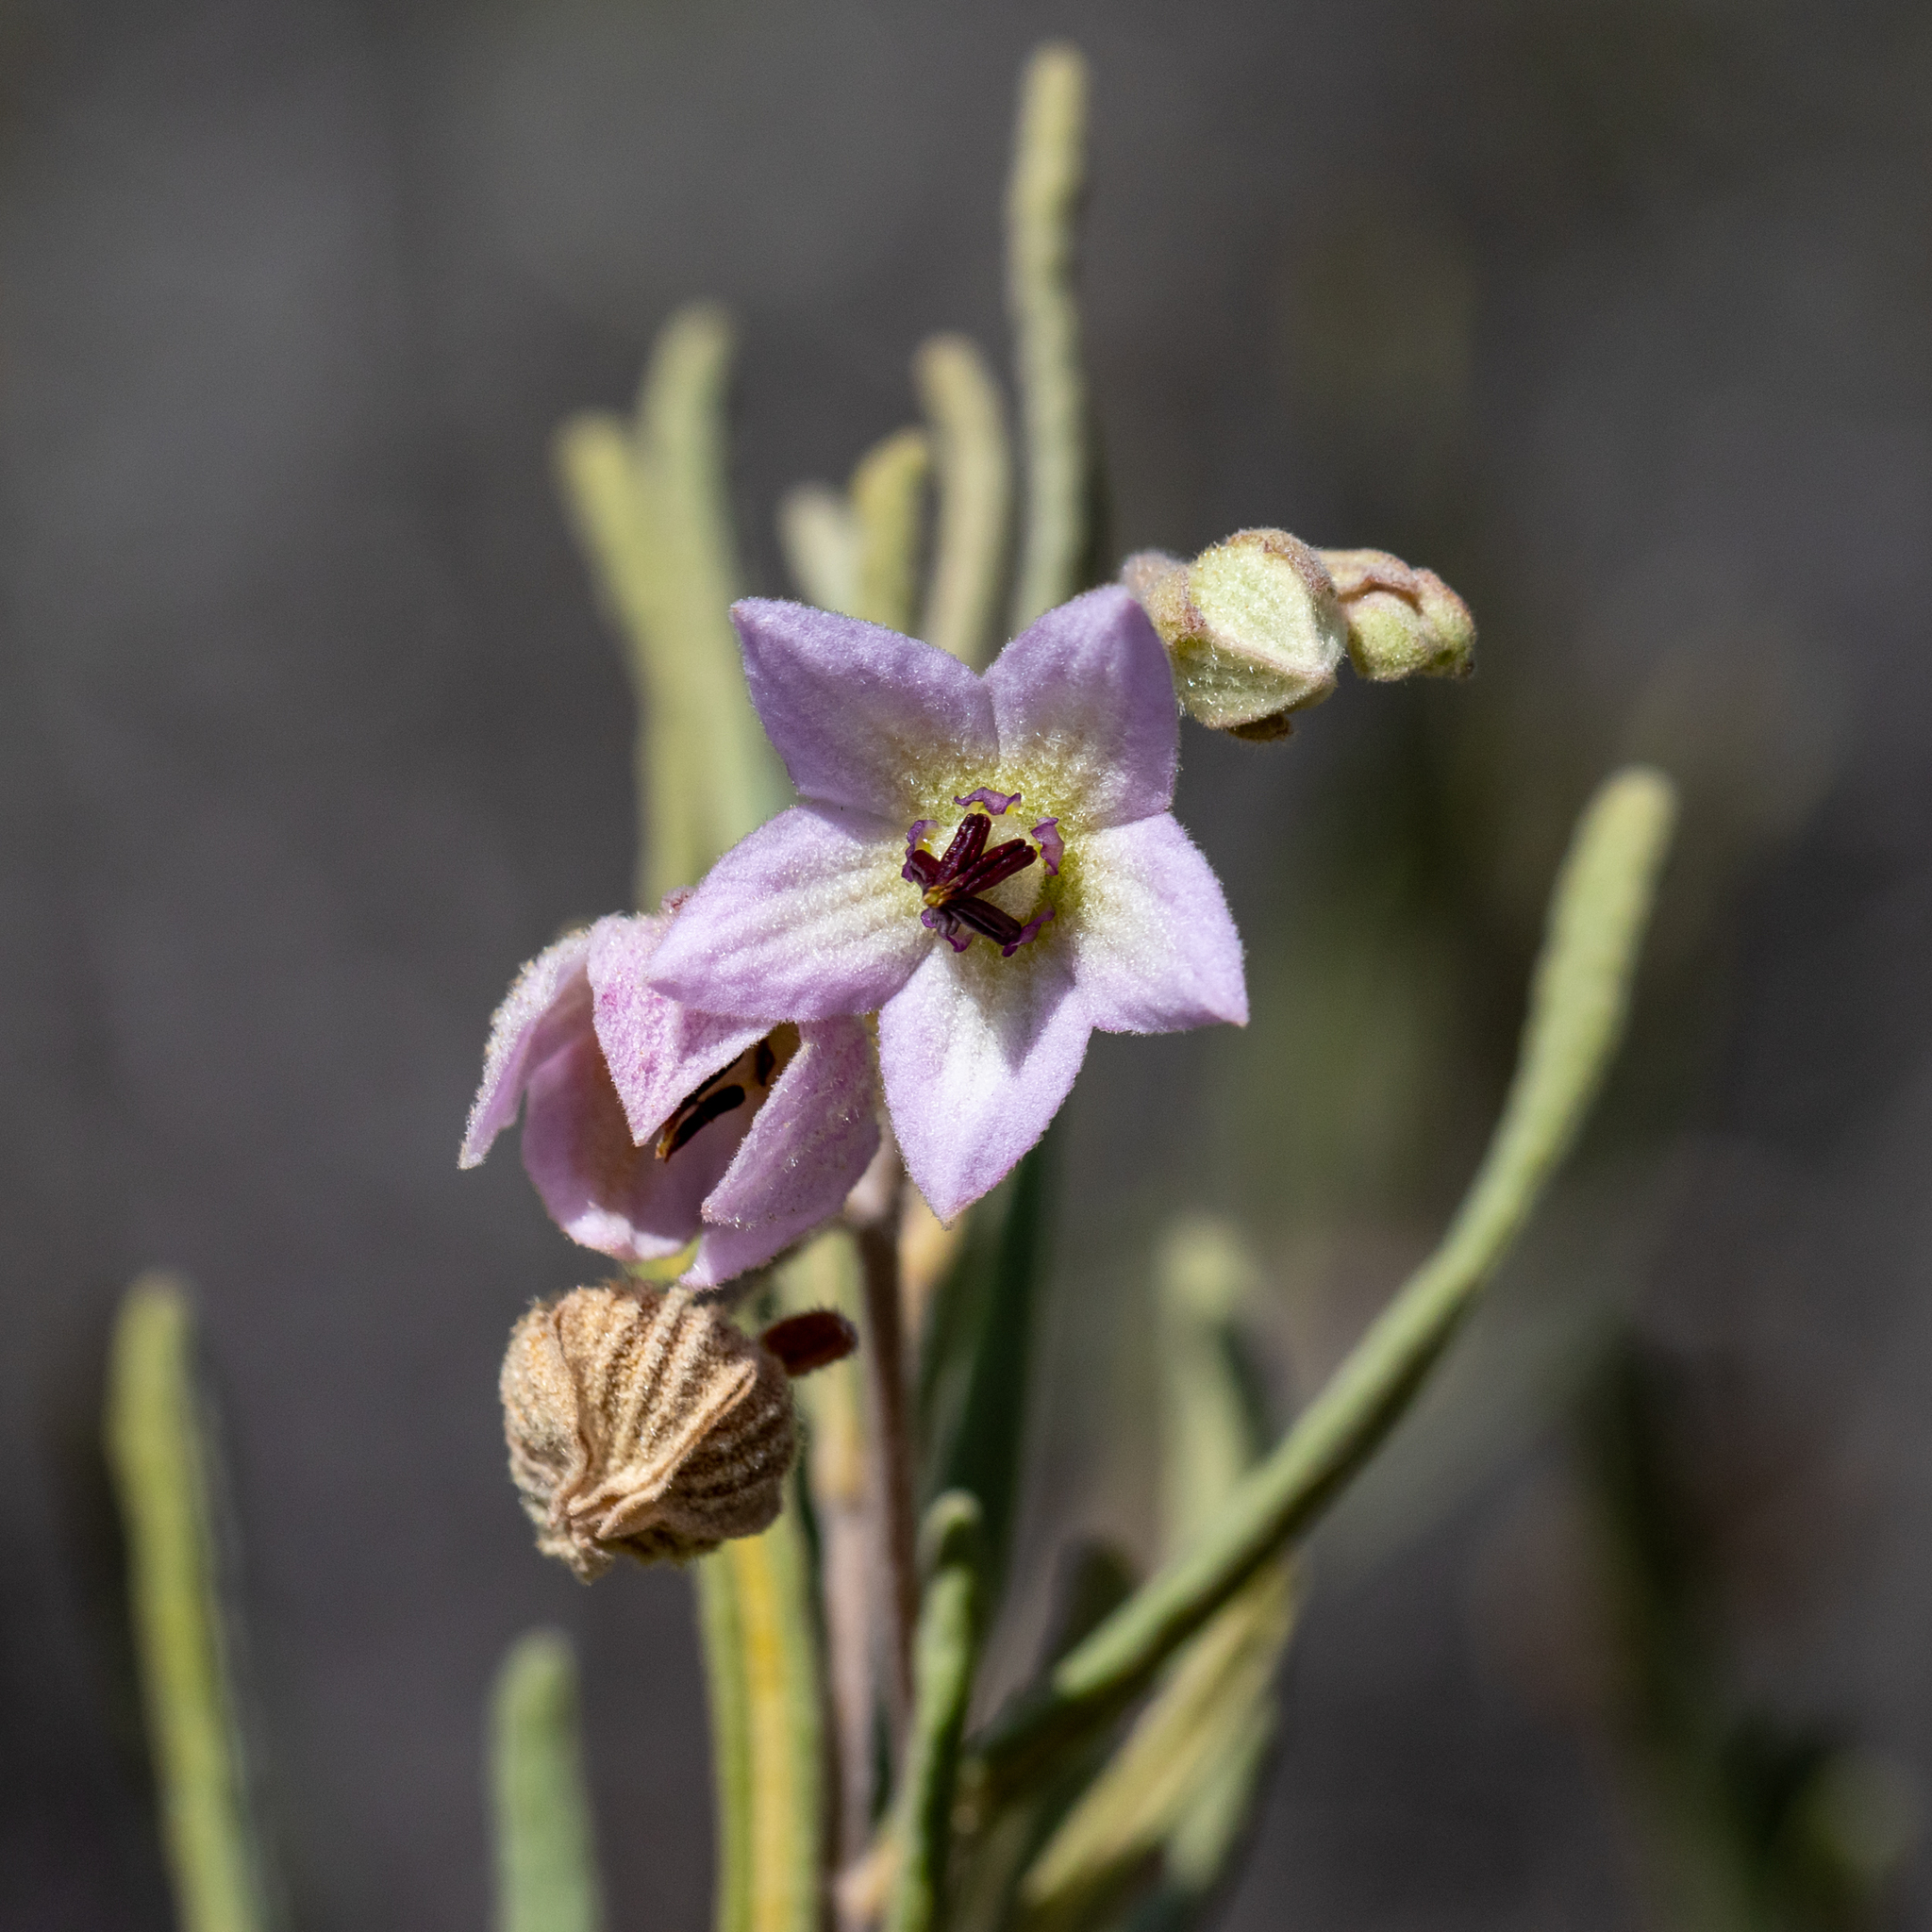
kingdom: Plantae
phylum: Tracheophyta
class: Magnoliopsida
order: Malvales
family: Malvaceae
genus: Guichenotia
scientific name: Guichenotia ledifolia
